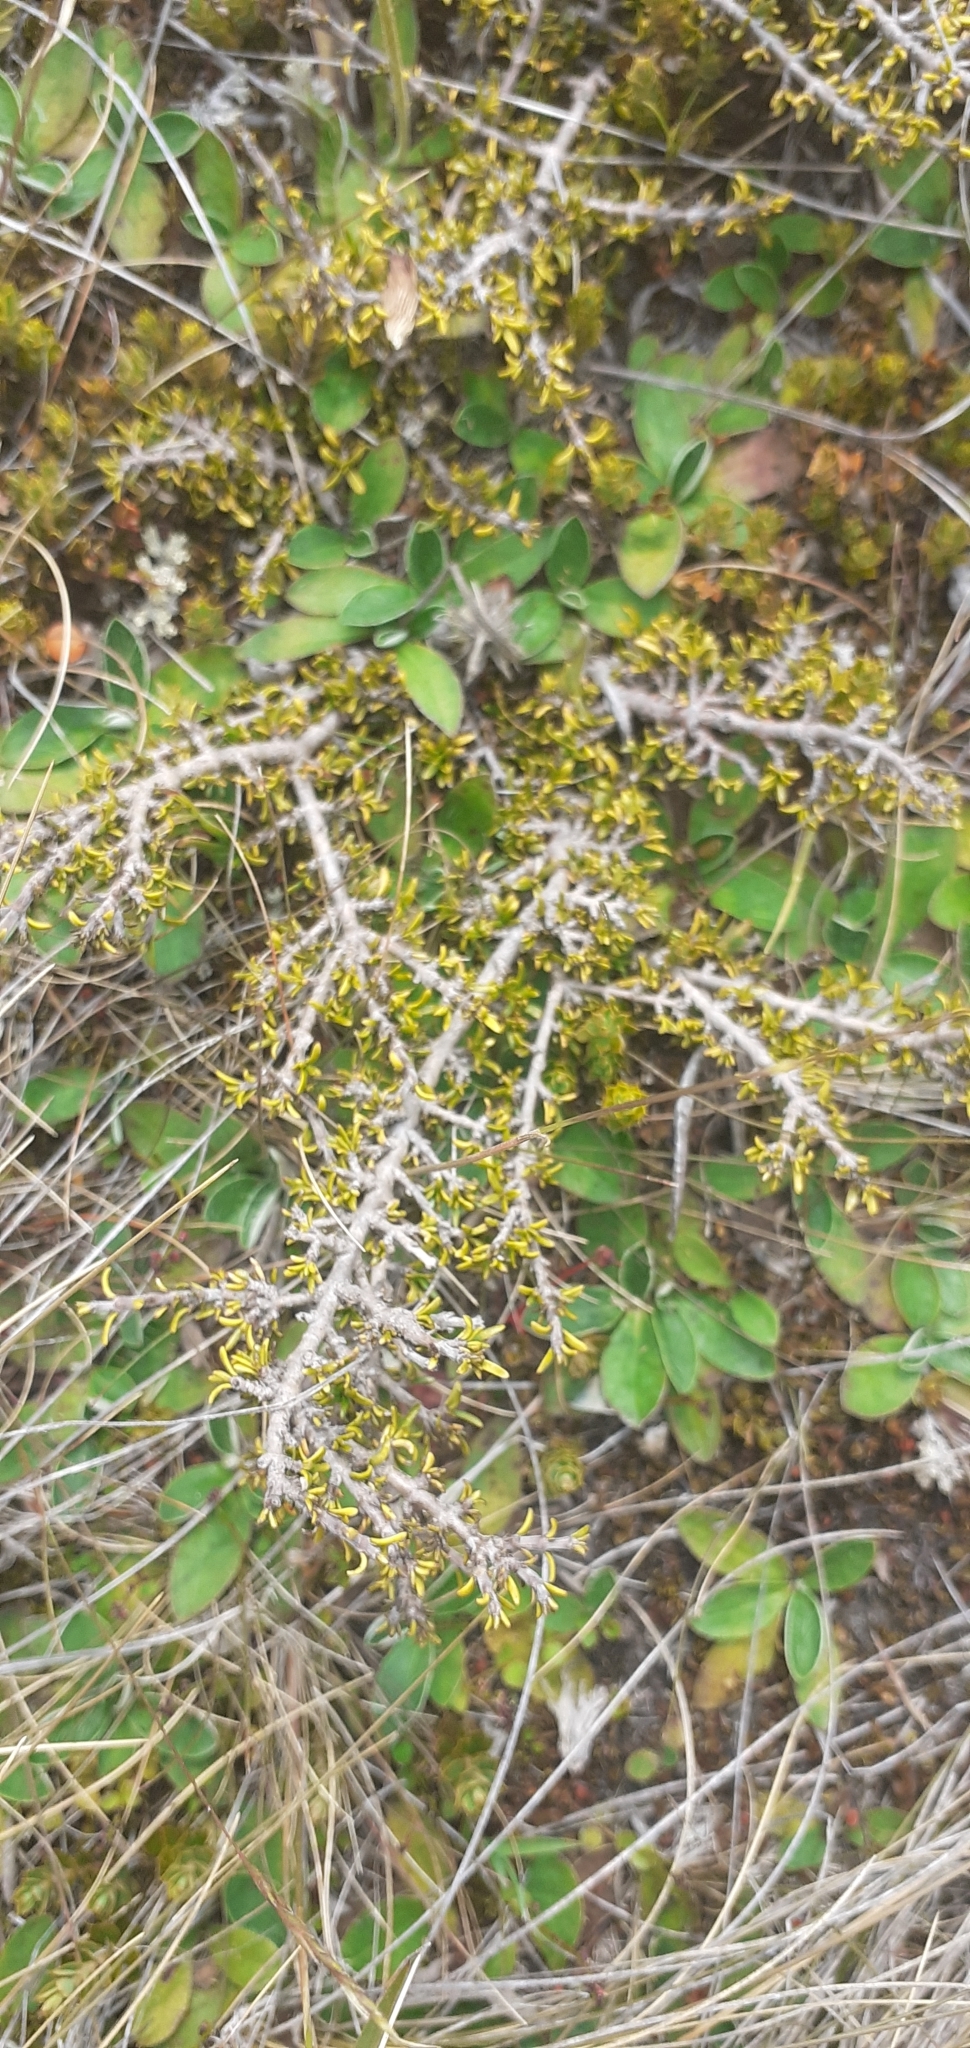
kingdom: Plantae
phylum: Tracheophyta
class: Magnoliopsida
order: Gentianales
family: Rubiaceae
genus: Coprosma
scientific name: Coprosma cheesemanii
